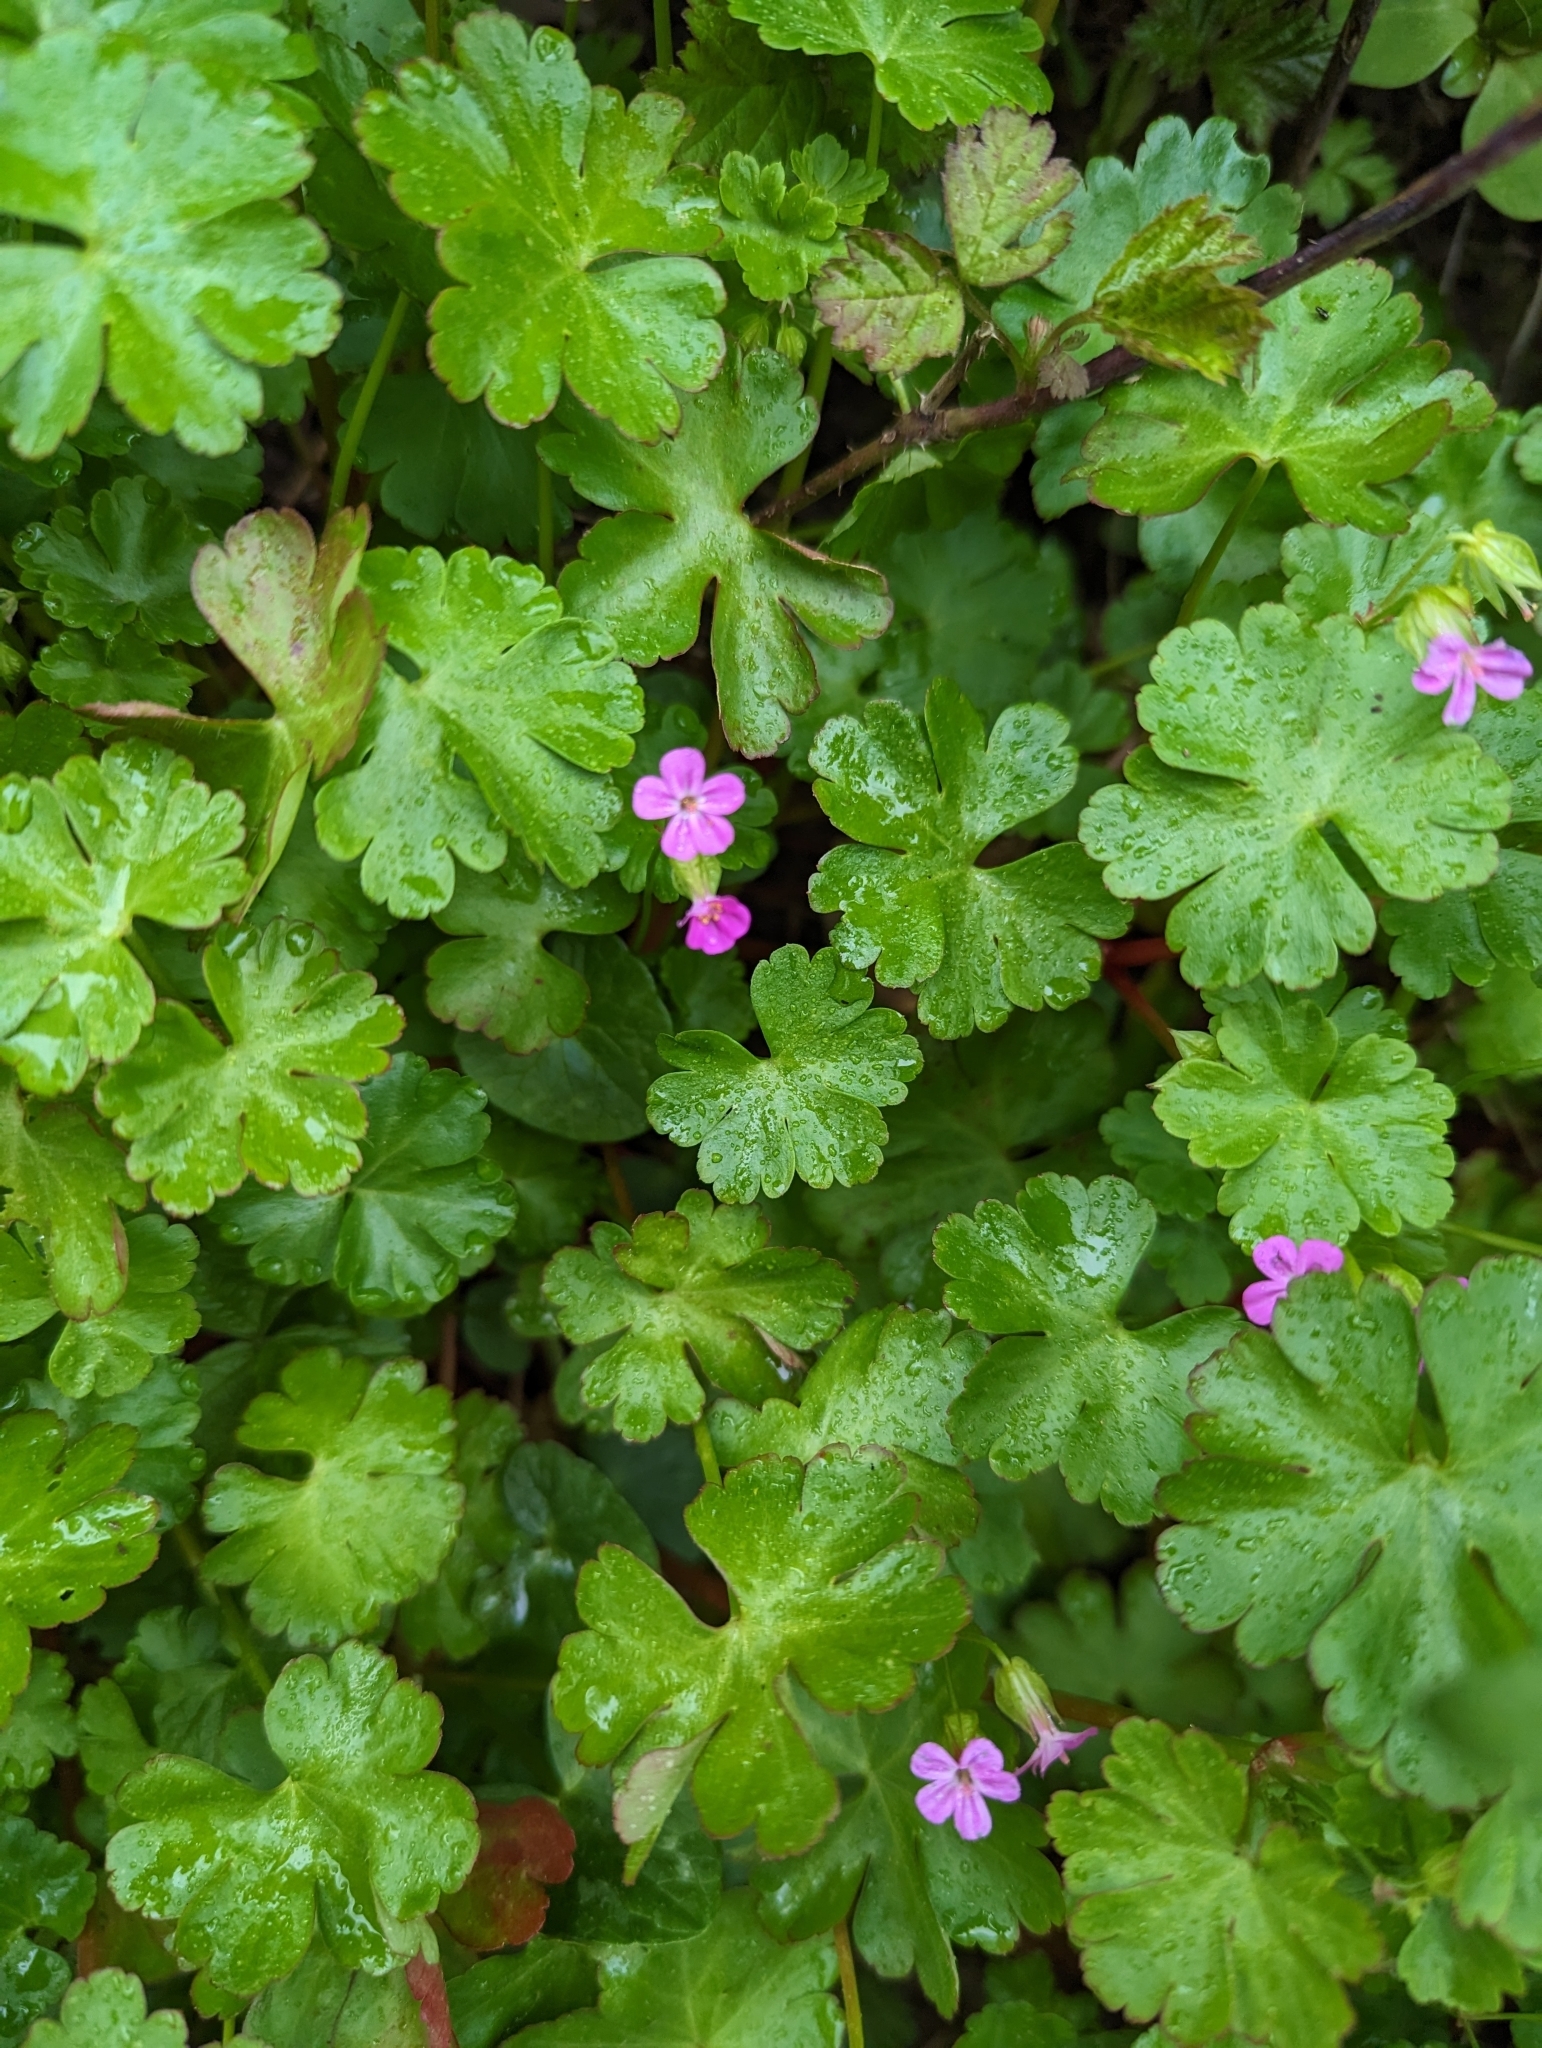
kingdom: Plantae
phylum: Tracheophyta
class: Magnoliopsida
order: Geraniales
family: Geraniaceae
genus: Geranium
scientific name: Geranium lucidum
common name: Shining crane's-bill
